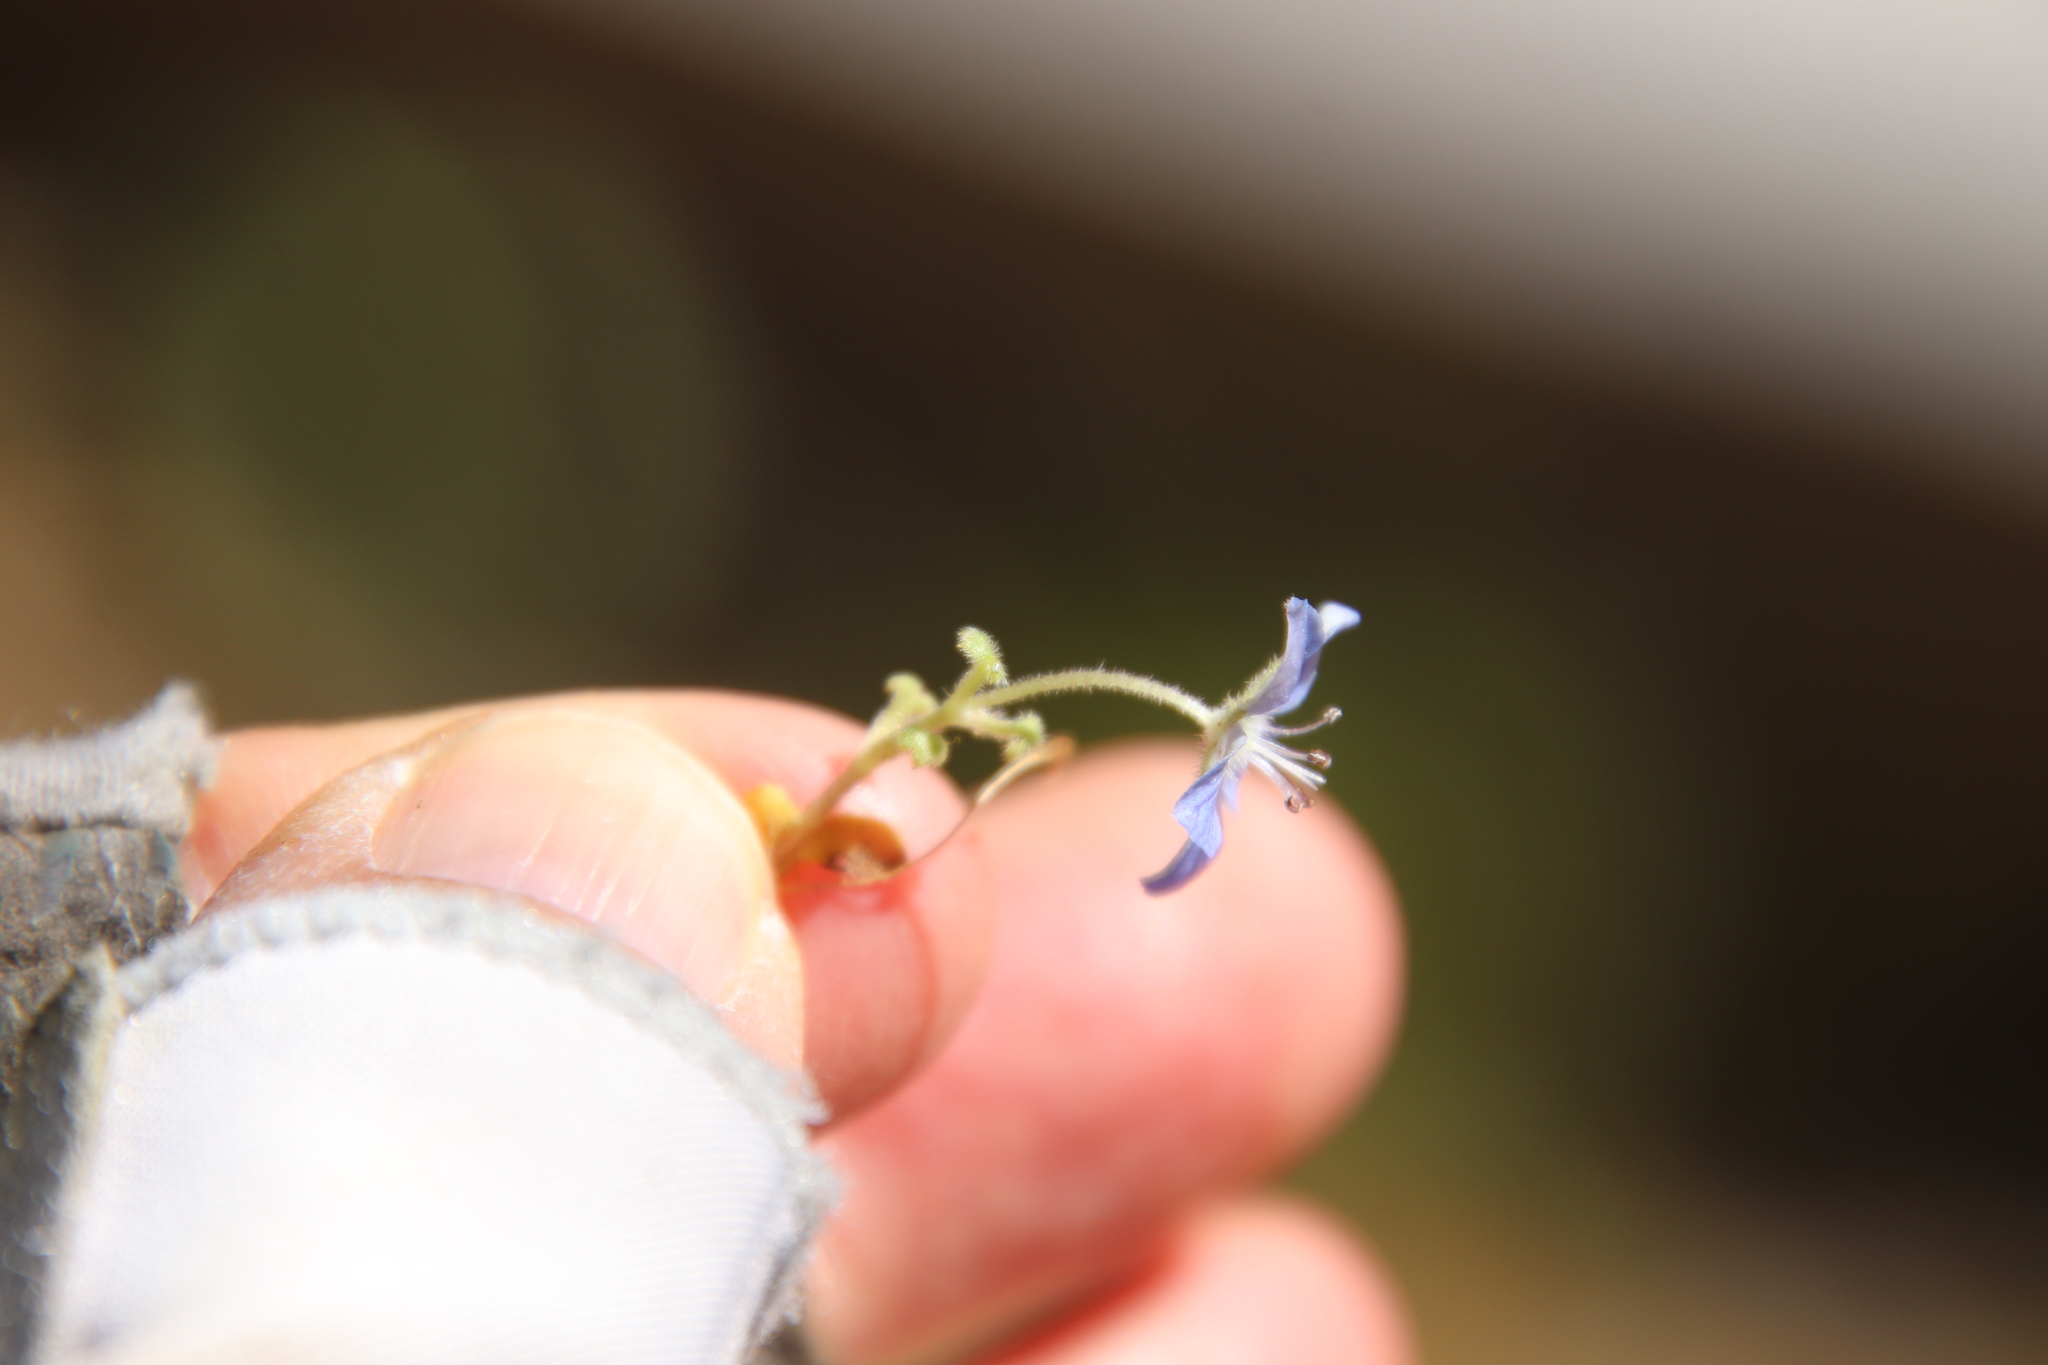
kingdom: Plantae
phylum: Tracheophyta
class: Magnoliopsida
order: Boraginales
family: Hydrophyllaceae
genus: Nemophila
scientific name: Nemophila menziesii
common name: Baby's-blue-eyes
